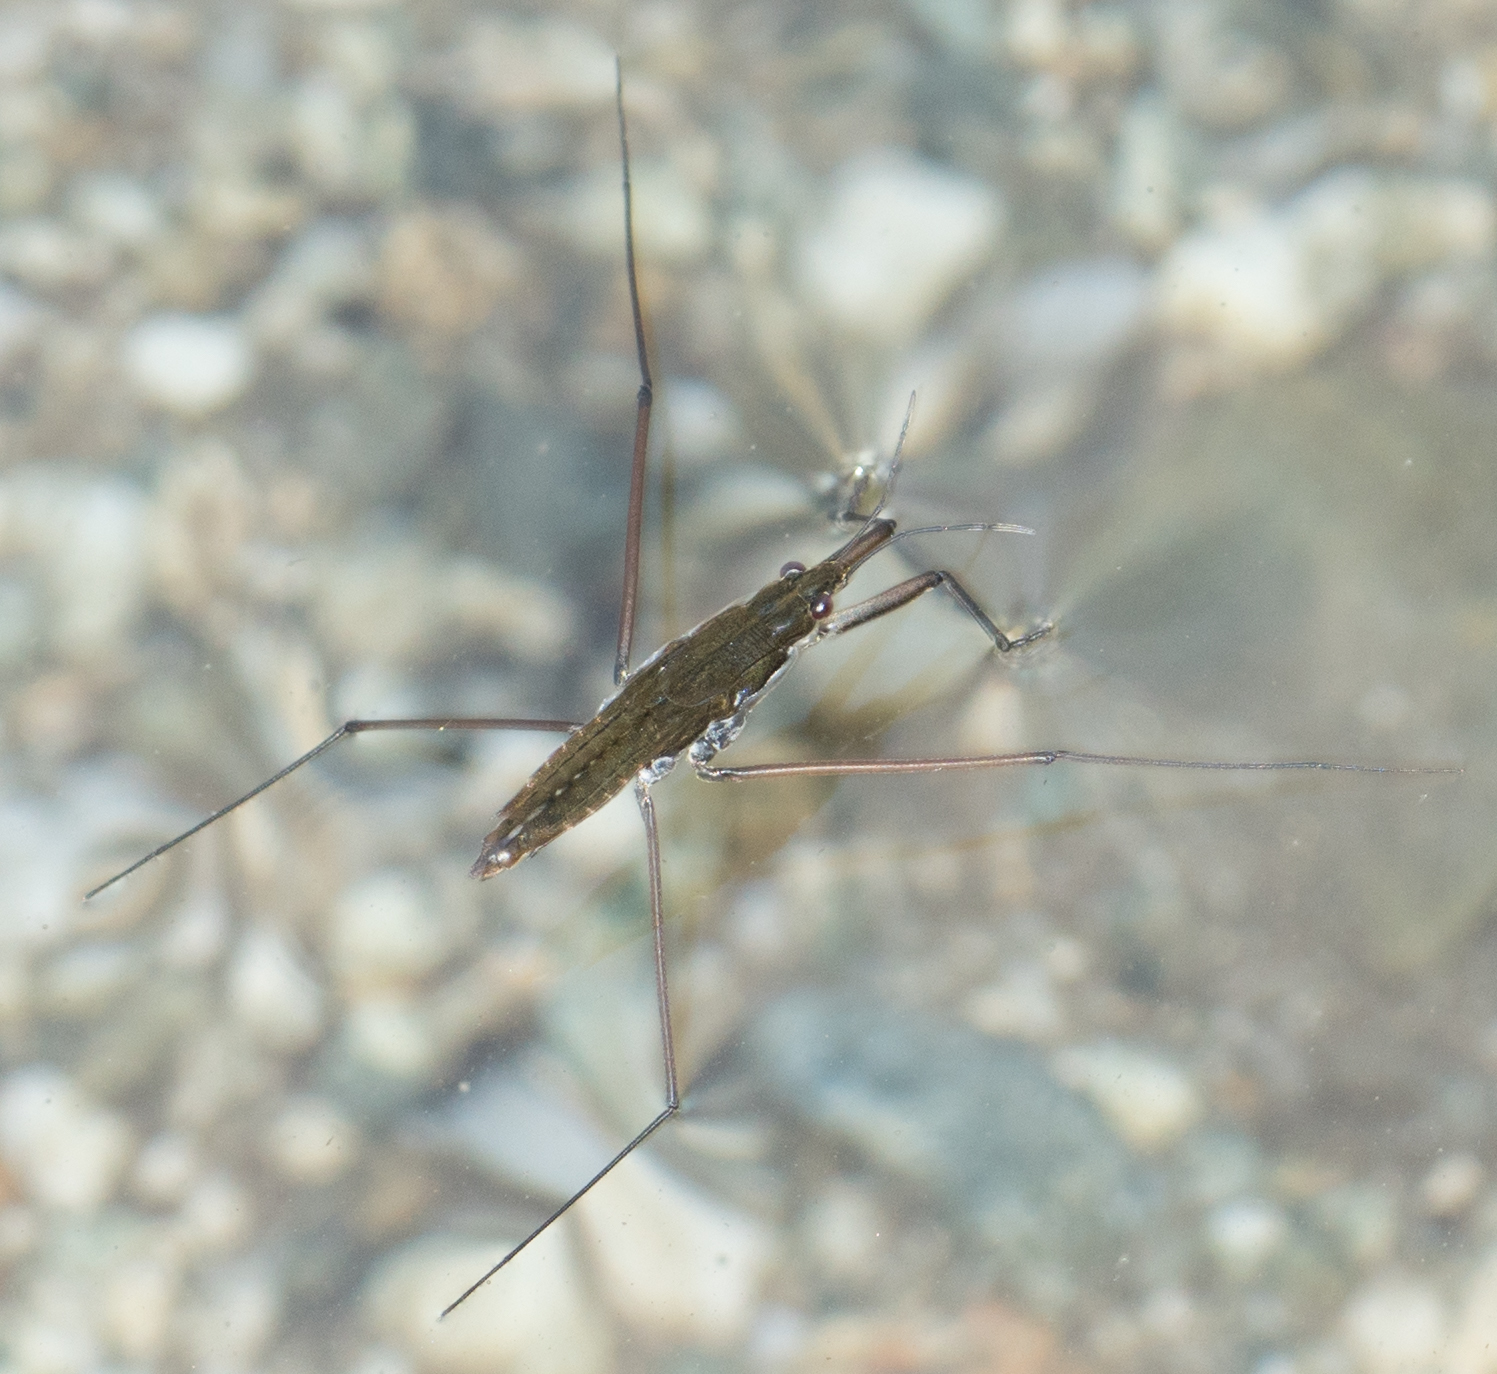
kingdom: Animalia
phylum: Arthropoda
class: Insecta
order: Hemiptera
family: Gerridae
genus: Aquarius
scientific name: Aquarius remigis
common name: Common water strider
